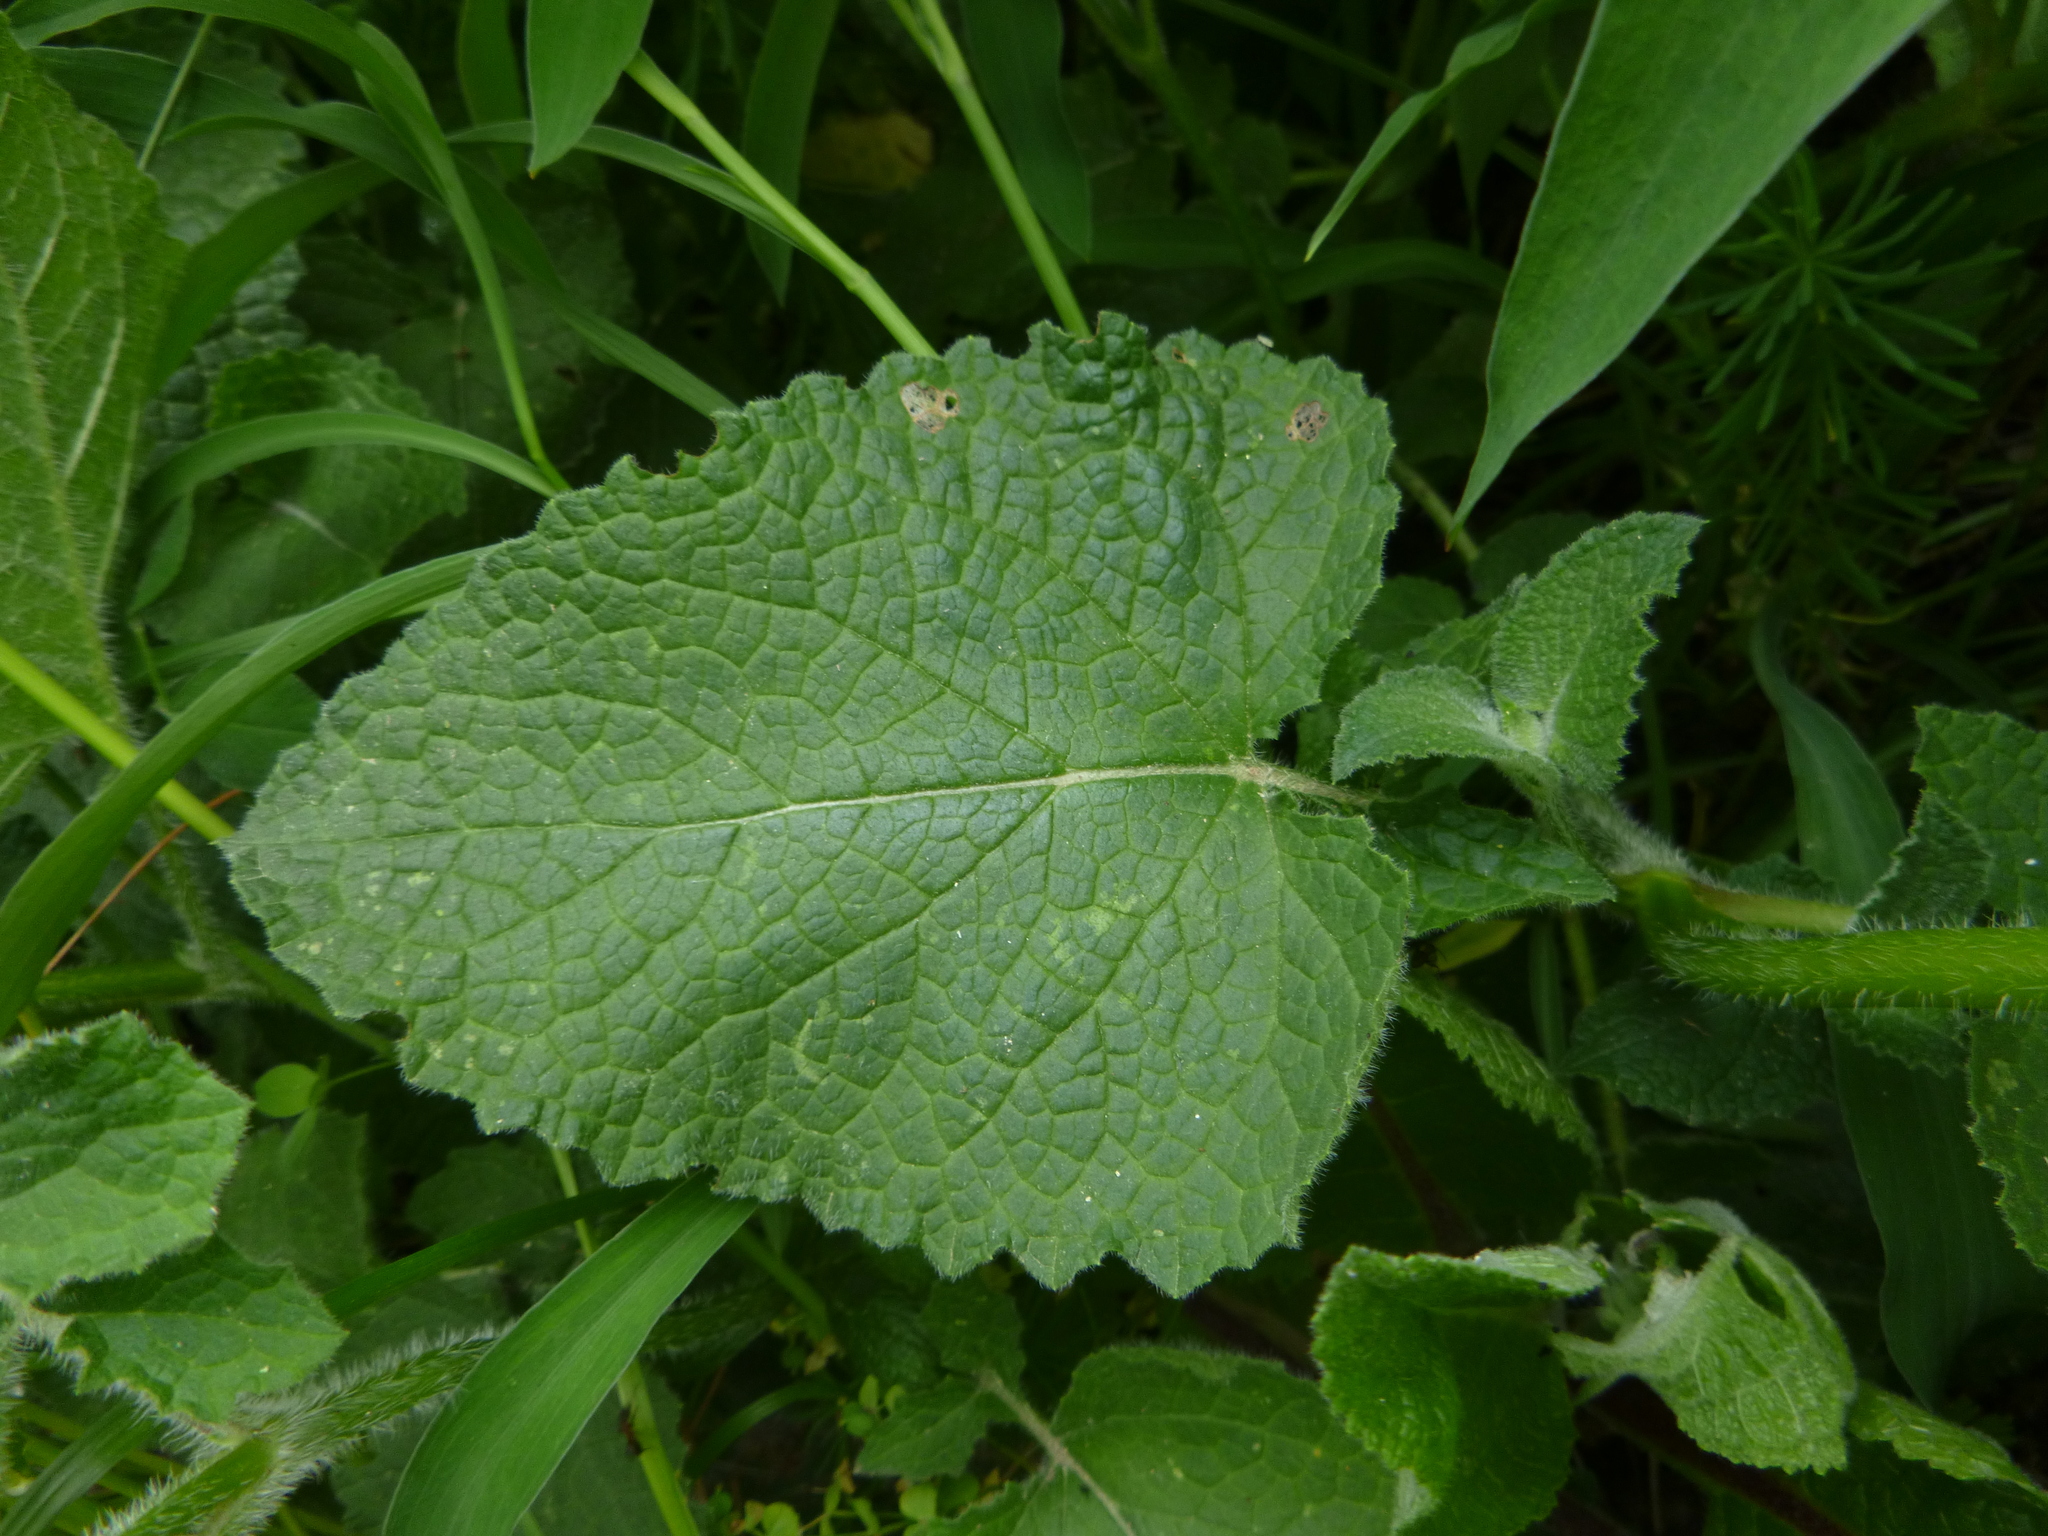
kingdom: Plantae
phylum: Tracheophyta
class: Magnoliopsida
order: Lamiales
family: Lamiaceae
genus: Salvia
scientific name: Salvia verticillata
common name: Whorled clary
